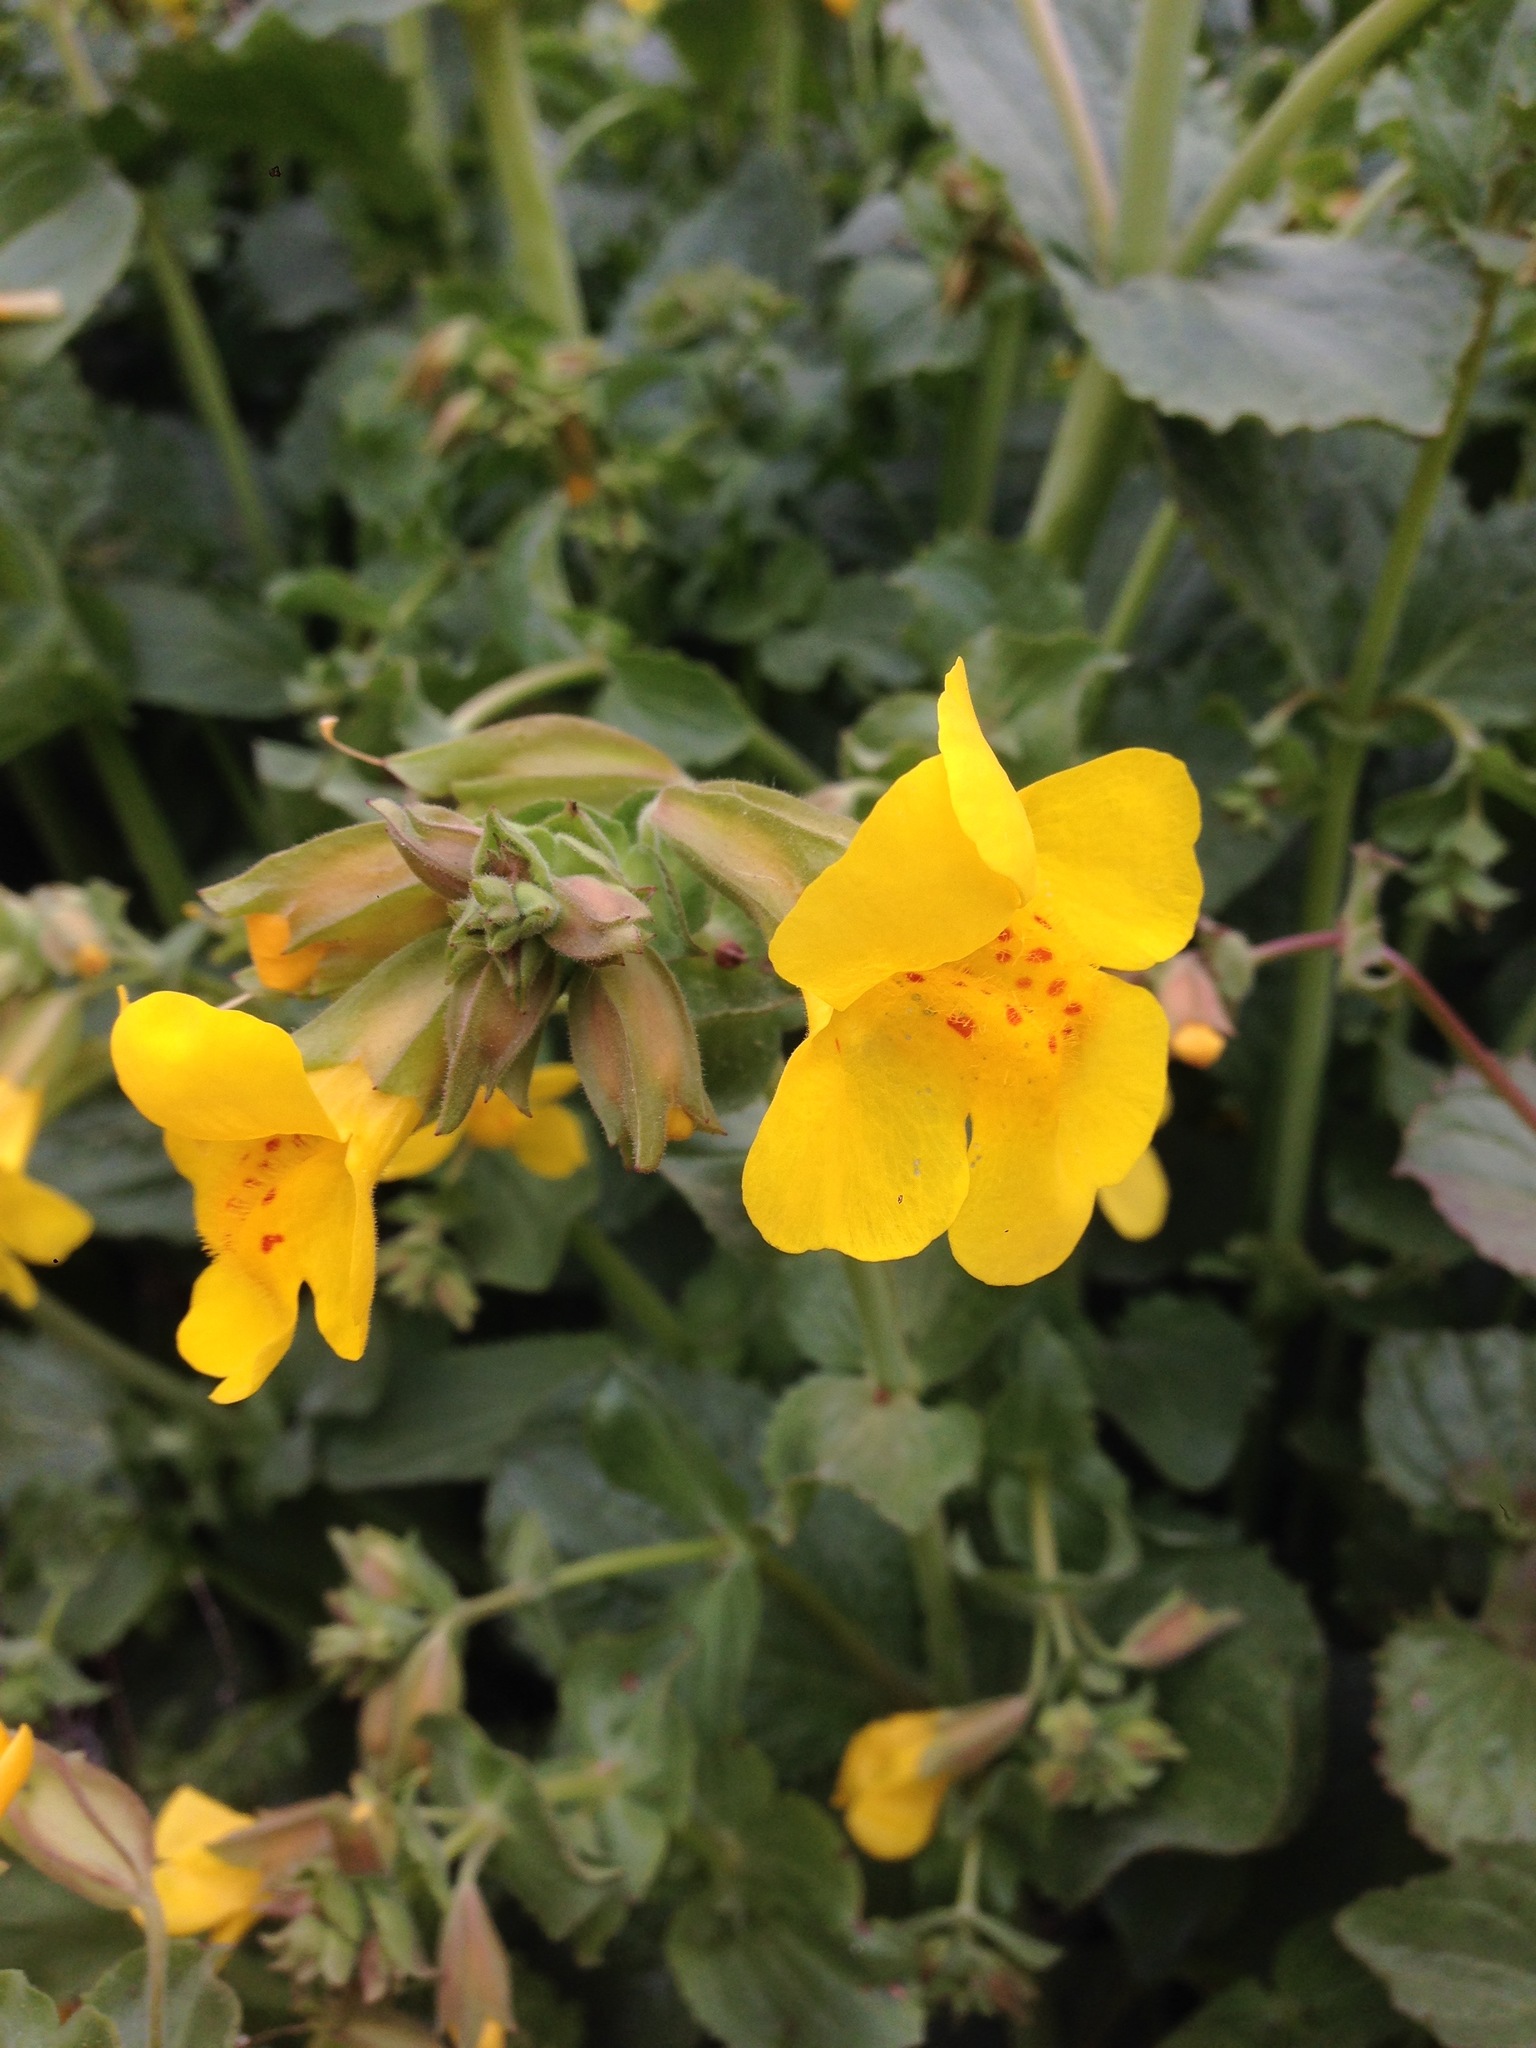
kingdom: Plantae
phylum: Tracheophyta
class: Magnoliopsida
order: Lamiales
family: Phrymaceae
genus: Erythranthe
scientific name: Erythranthe guttata
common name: Monkeyflower
